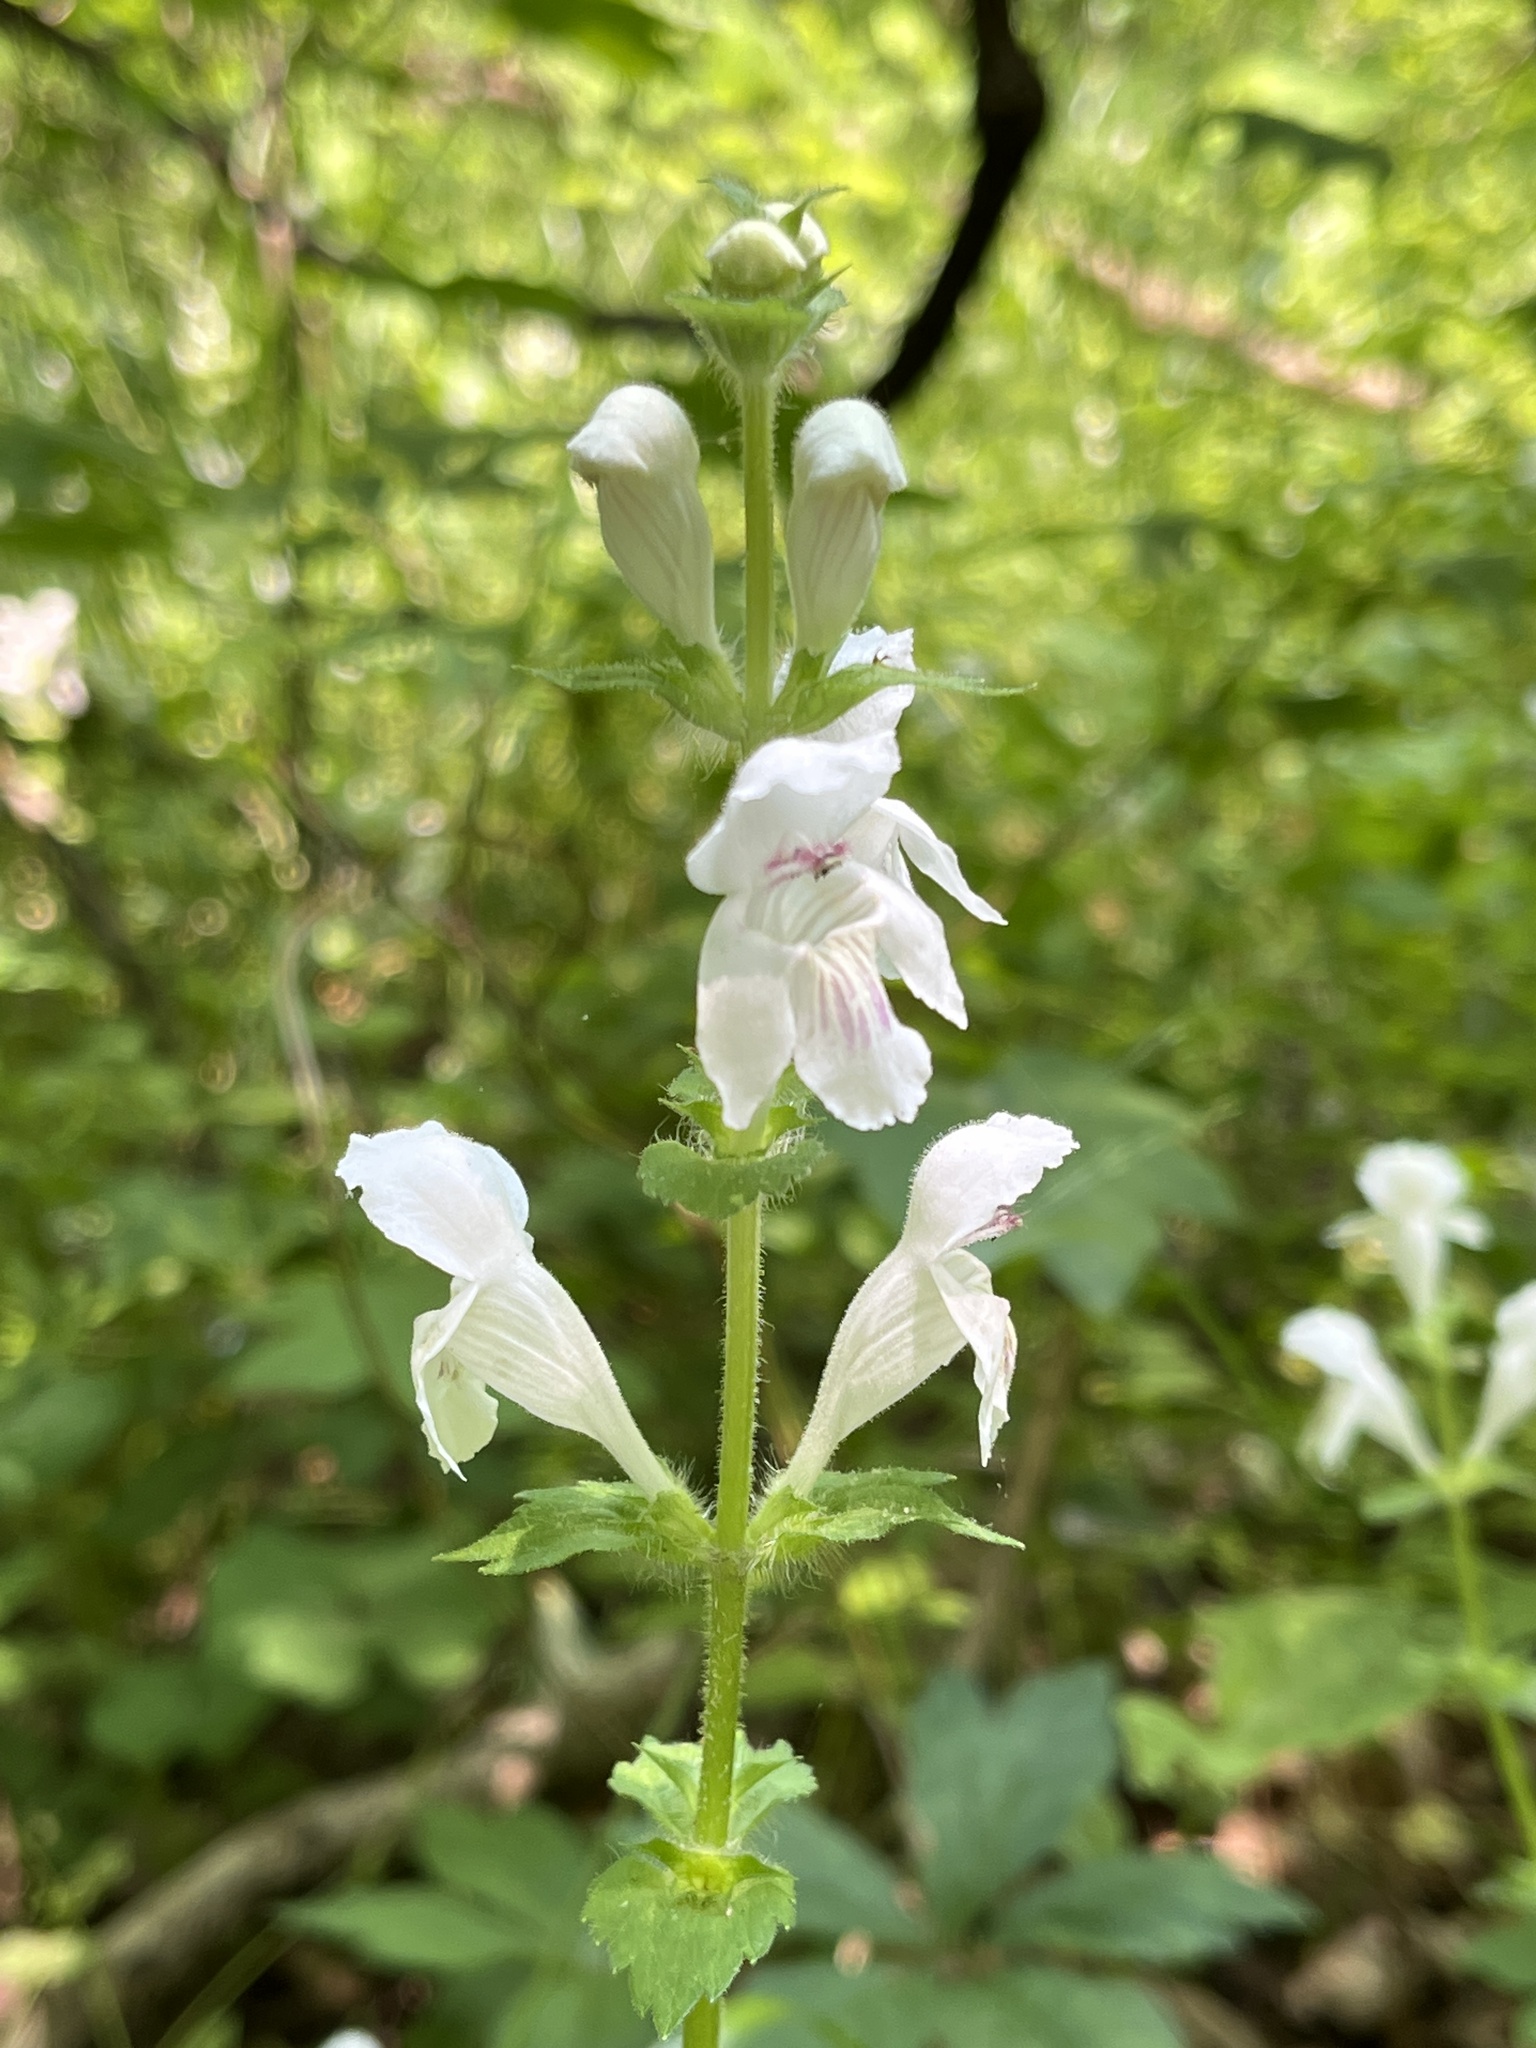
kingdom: Plantae
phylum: Tracheophyta
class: Magnoliopsida
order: Lamiales
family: Lamiaceae
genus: Synandra
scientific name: Synandra hispidula
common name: Synandra
